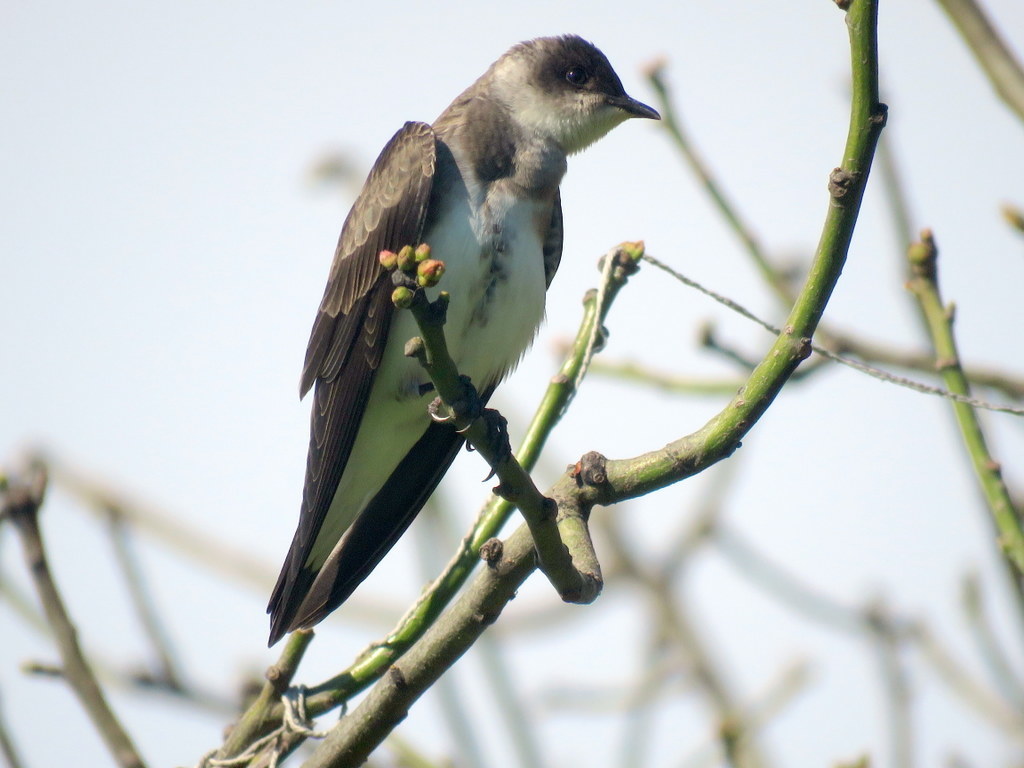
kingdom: Animalia
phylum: Chordata
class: Aves
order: Passeriformes
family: Hirundinidae
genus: Progne
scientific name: Progne tapera
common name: Brown-chested martin
